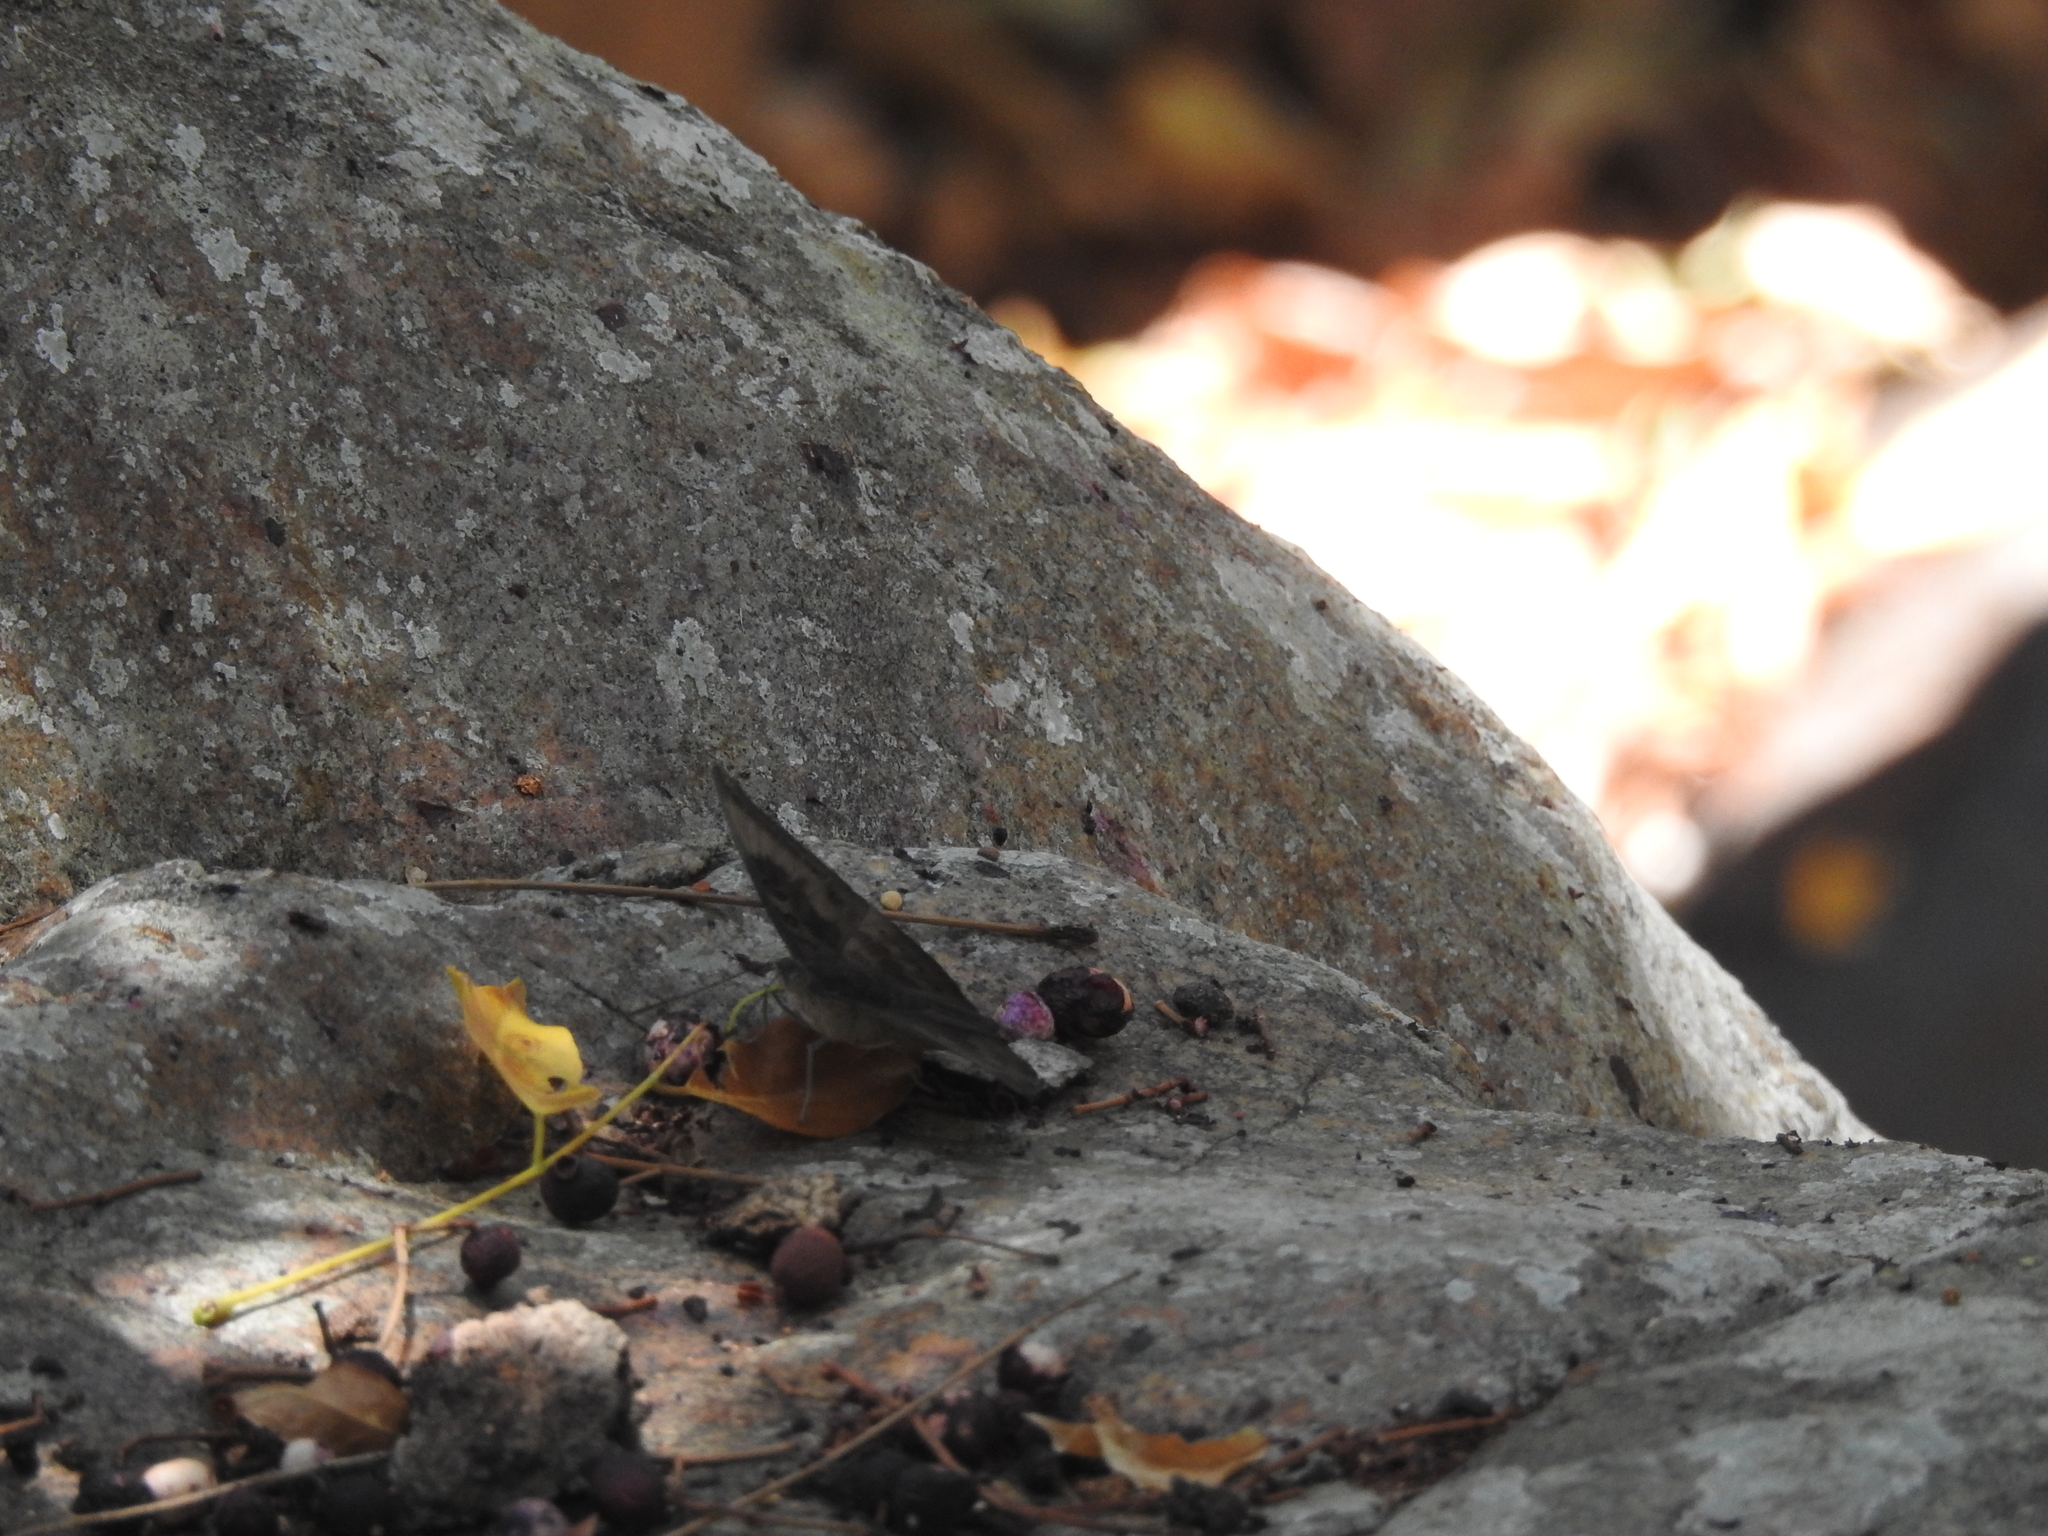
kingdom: Animalia
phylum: Arthropoda
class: Insecta
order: Lepidoptera
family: Nymphalidae
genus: Euthalia
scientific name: Euthalia aconthea
